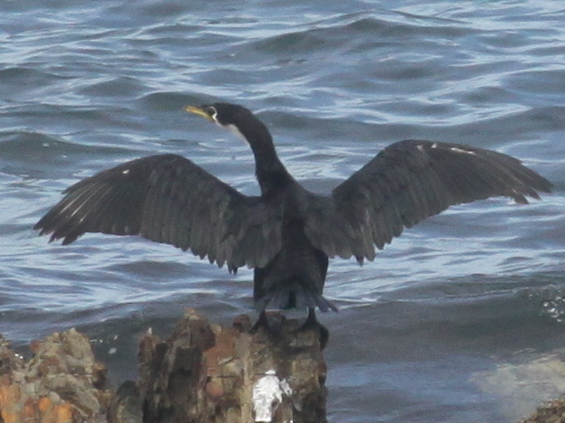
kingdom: Animalia
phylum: Chordata
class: Aves
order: Suliformes
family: Phalacrocoracidae
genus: Microcarbo
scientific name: Microcarbo melanoleucos
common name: Little pied cormorant
